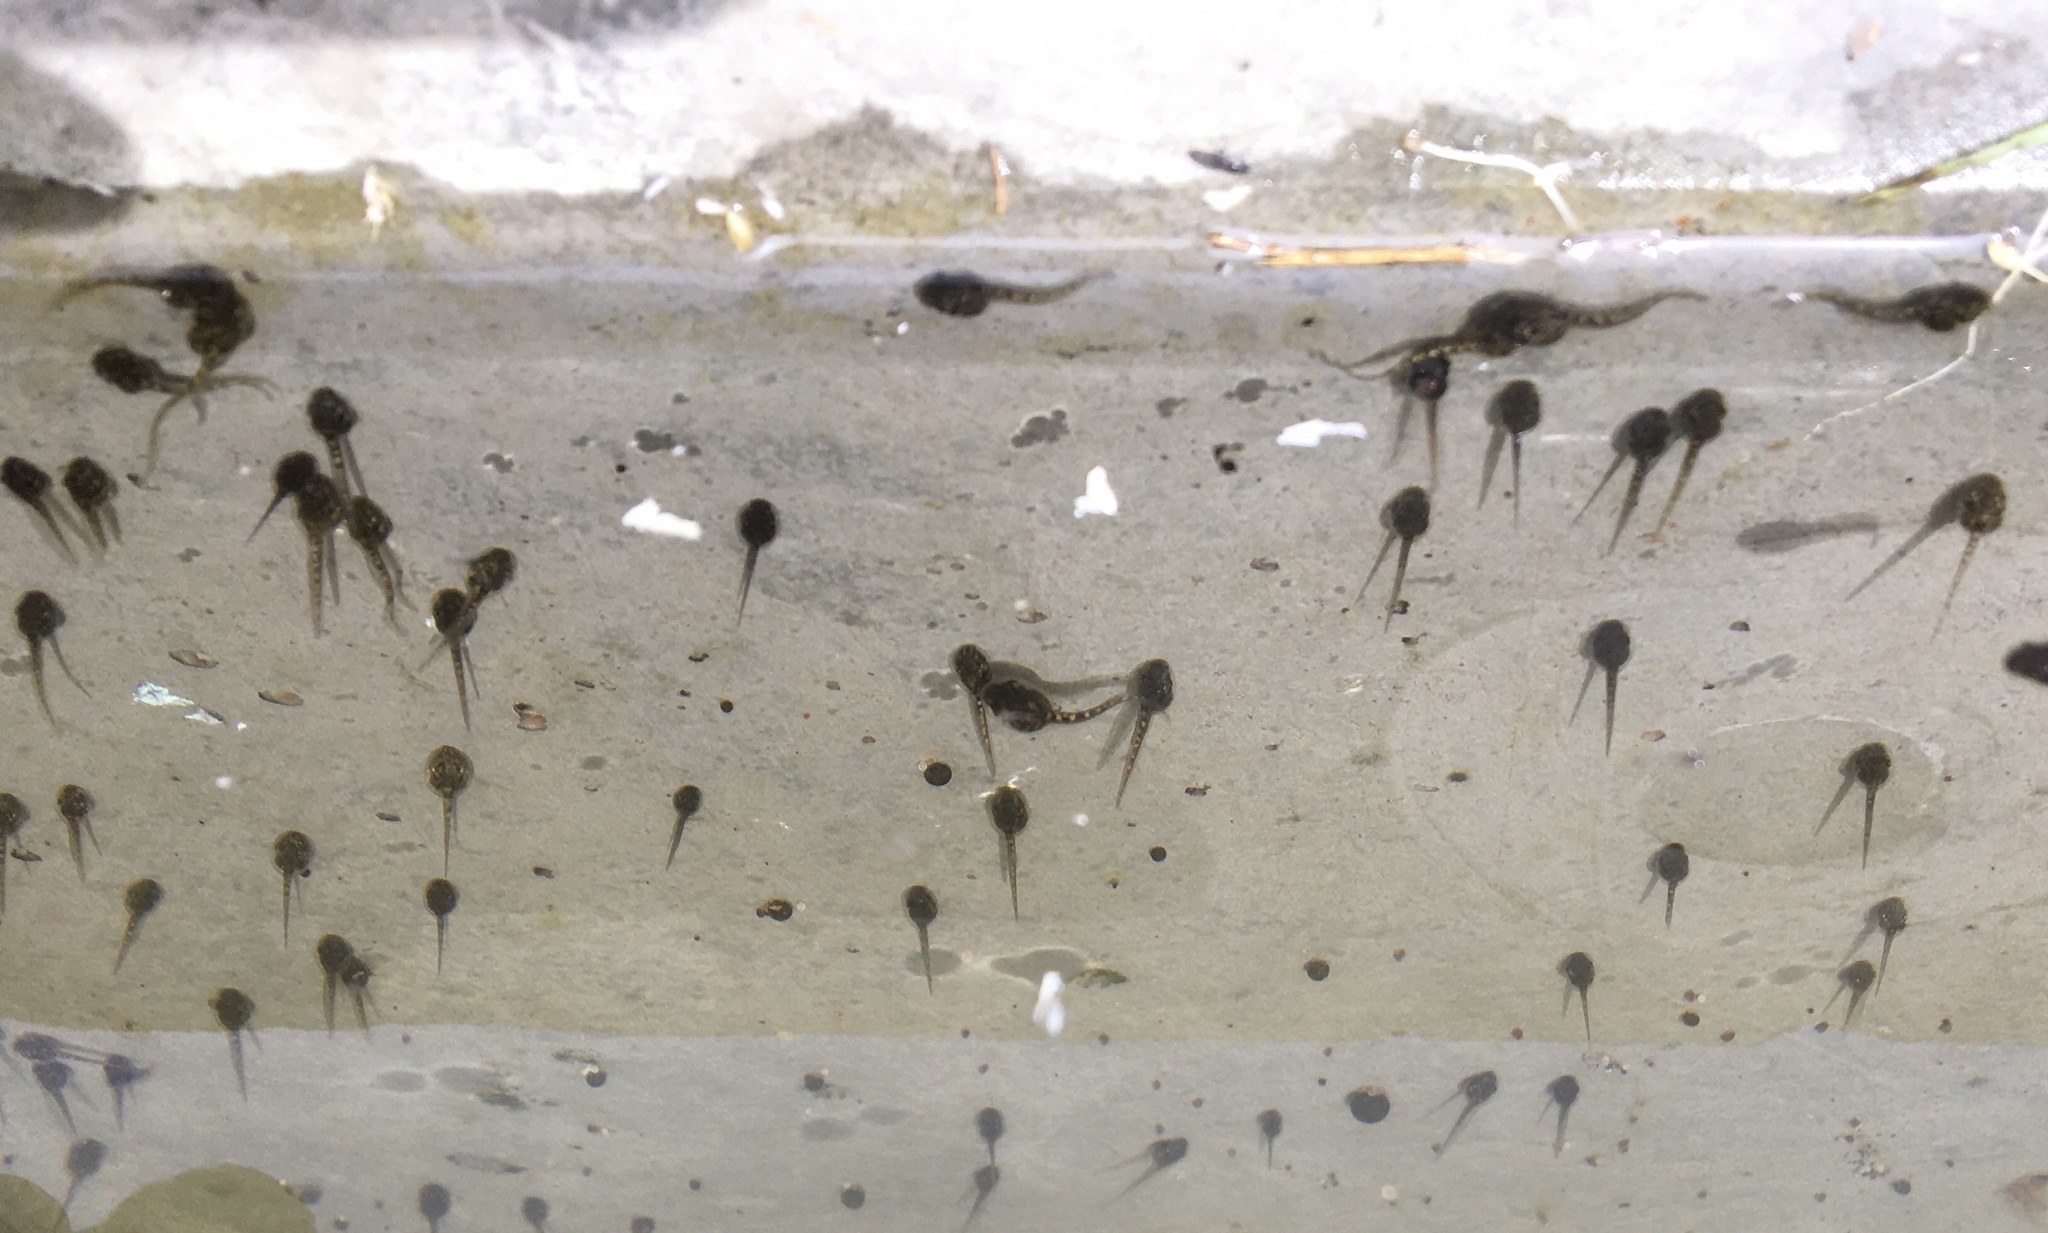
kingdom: Animalia
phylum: Chordata
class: Amphibia
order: Anura
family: Hylidae
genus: Pseudacris
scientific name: Pseudacris regilla
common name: Pacific chorus frog
